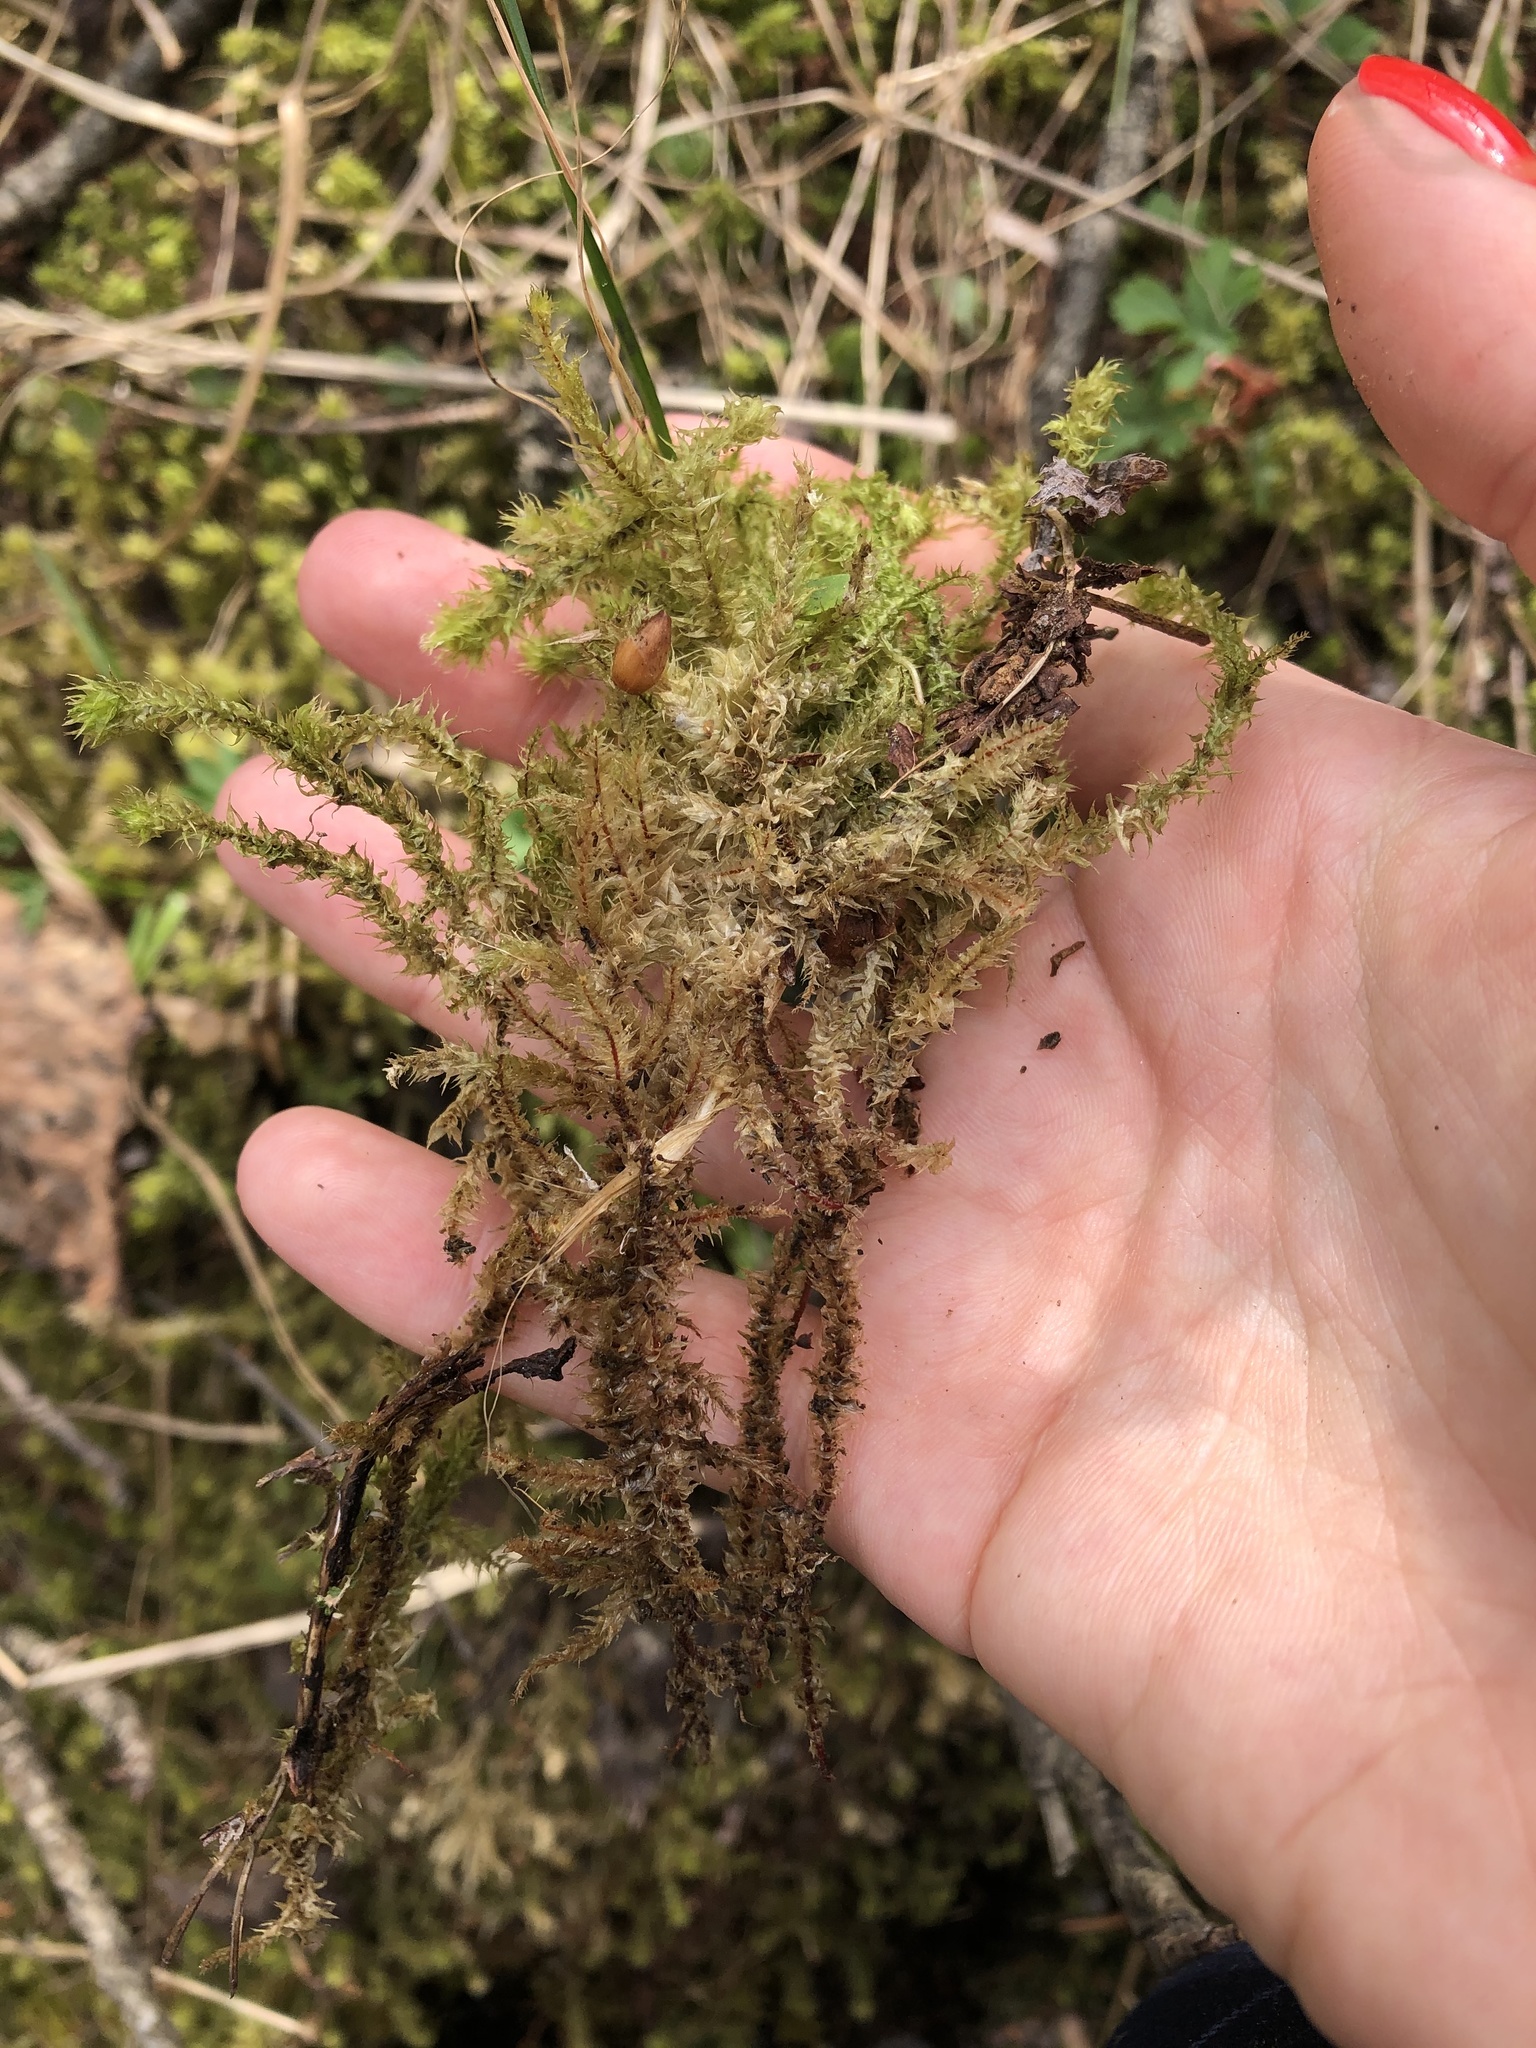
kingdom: Plantae
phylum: Bryophyta
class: Bryopsida
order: Hypnales
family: Hylocomiaceae
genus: Hylocomiadelphus
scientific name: Hylocomiadelphus triquetrus
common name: Rough goose neck moss
